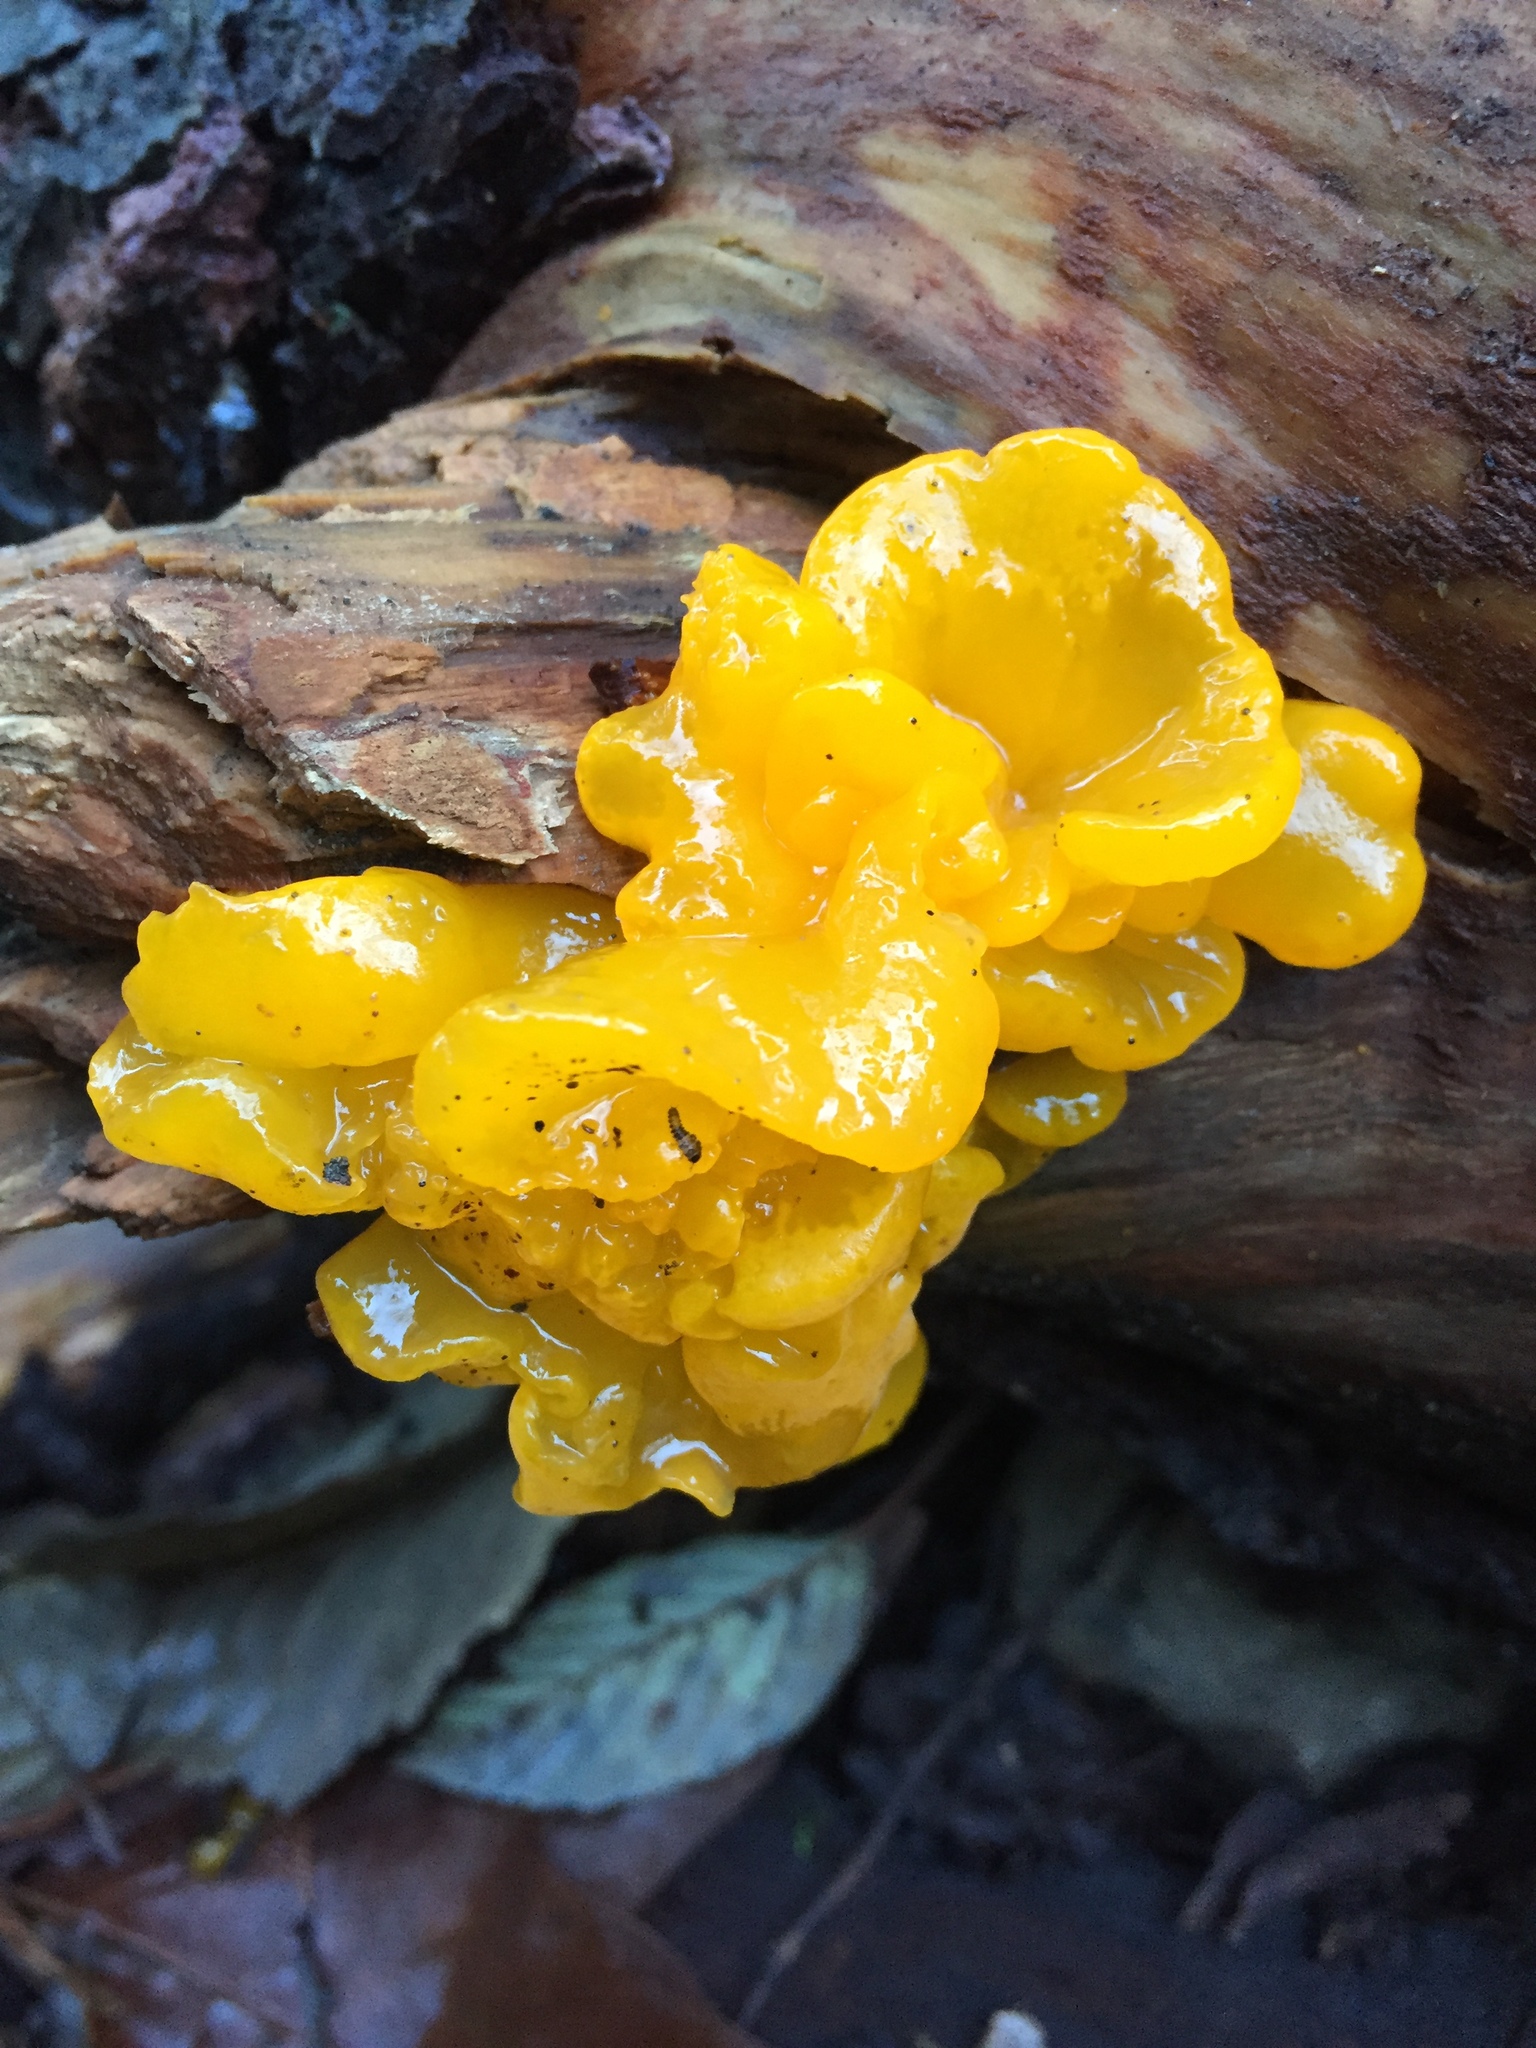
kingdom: Fungi
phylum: Basidiomycota
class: Tremellomycetes
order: Tremellales
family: Tremellaceae
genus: Tremella
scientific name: Tremella mesenterica
